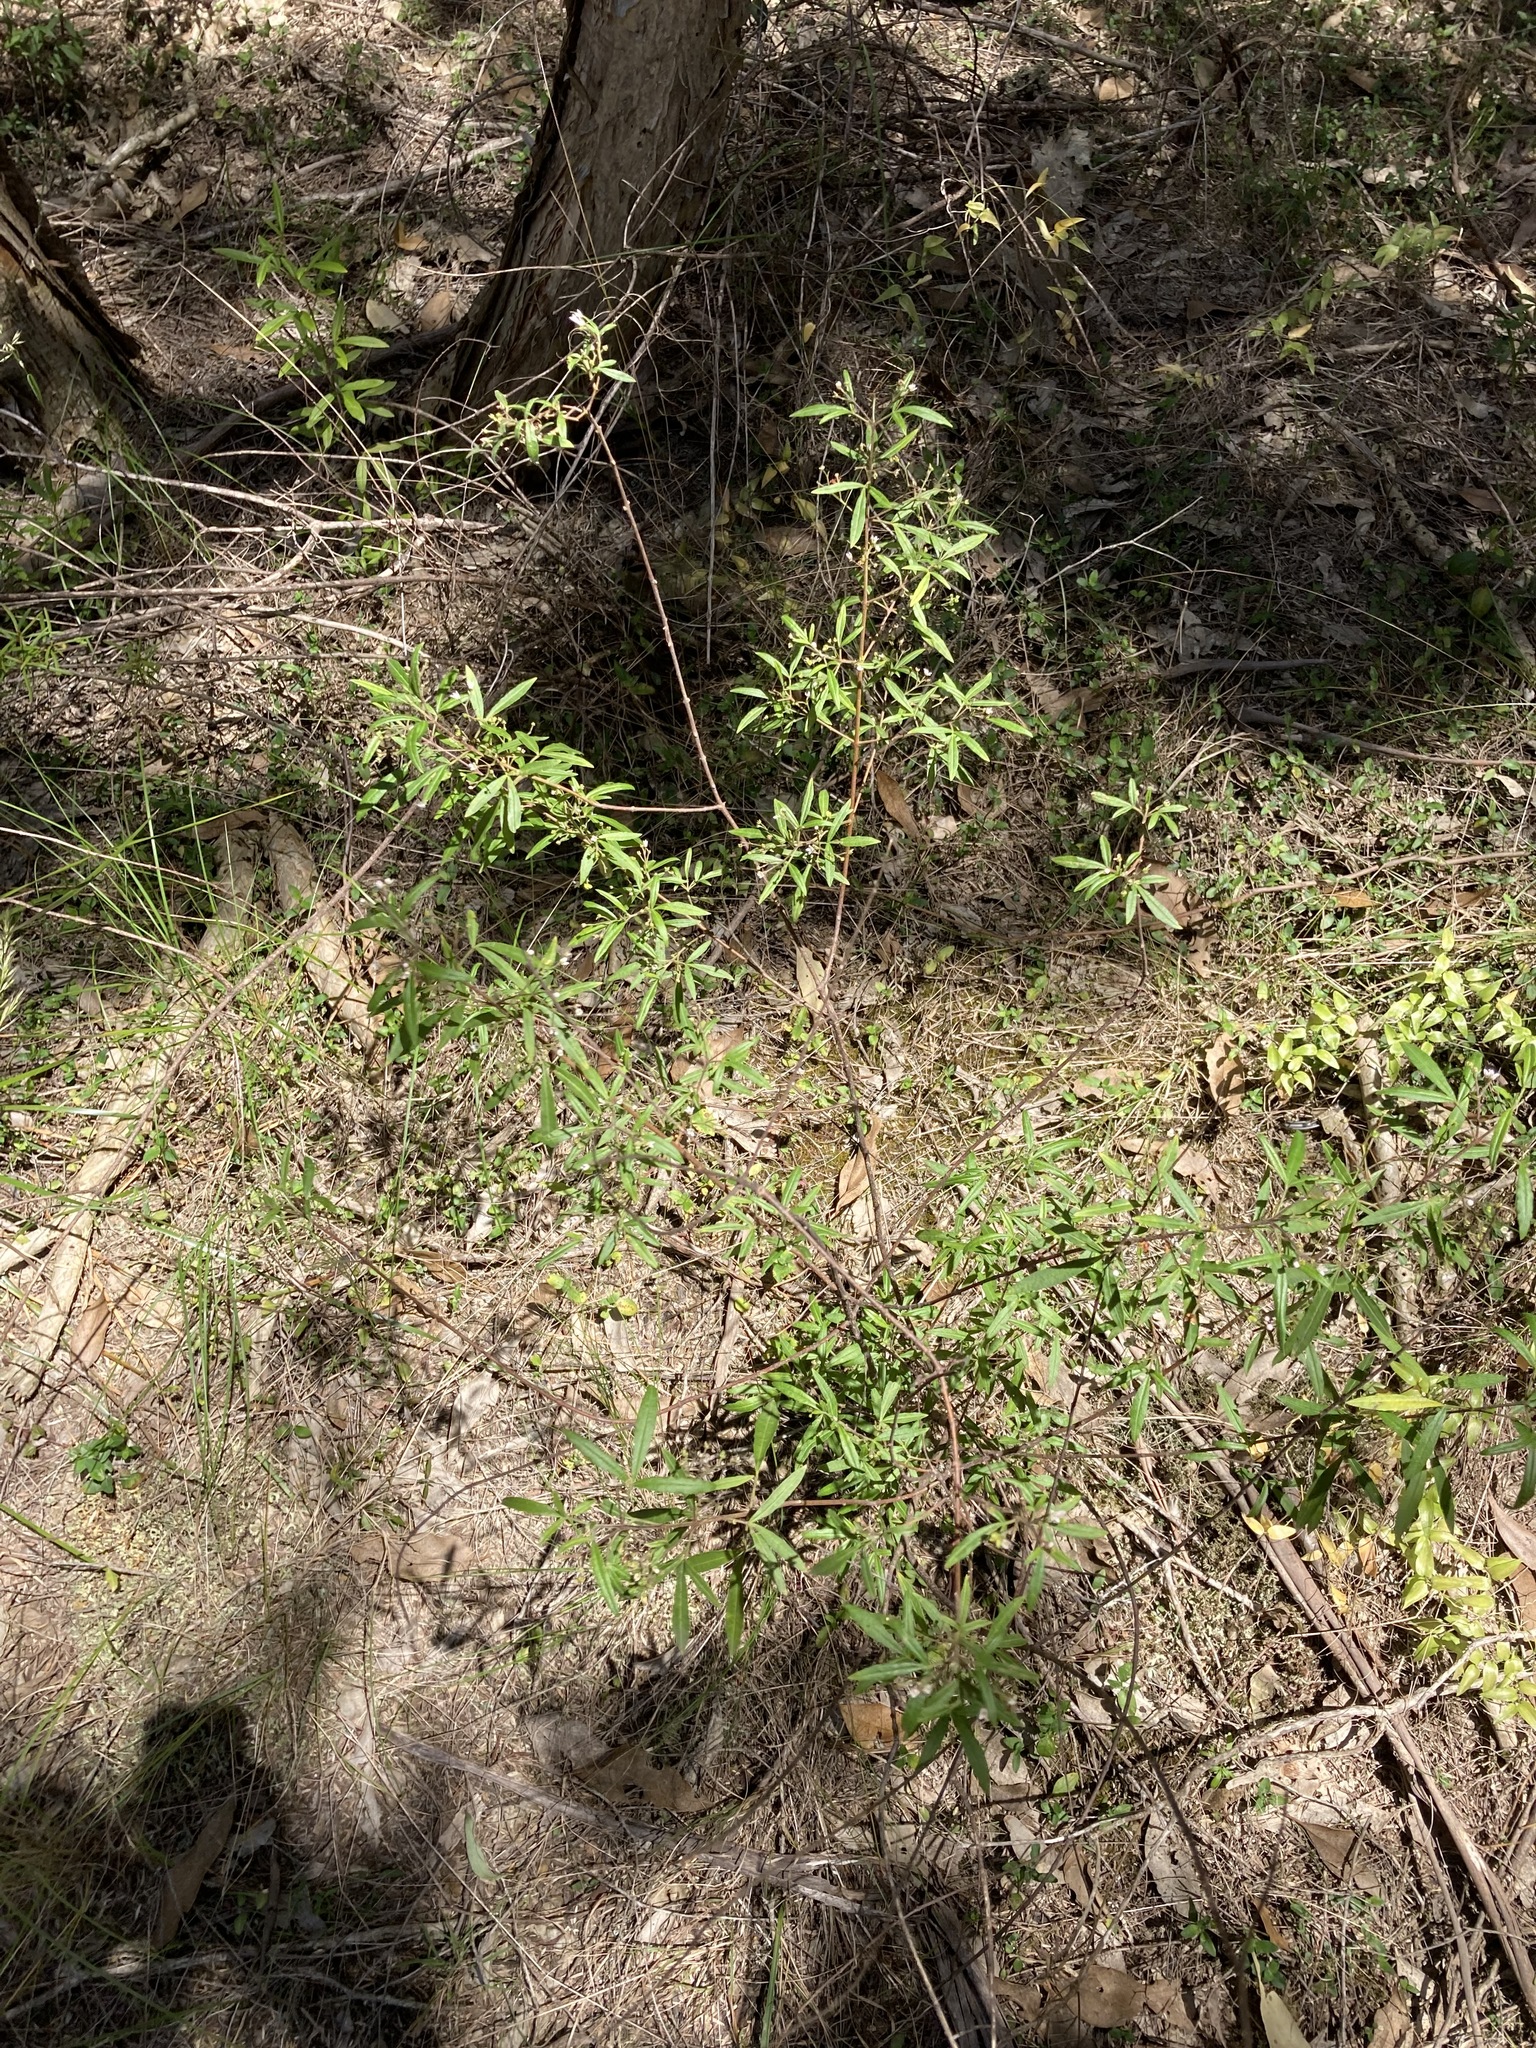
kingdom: Plantae
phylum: Tracheophyta
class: Magnoliopsida
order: Sapindales
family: Rutaceae
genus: Zieria
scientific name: Zieria smithii
